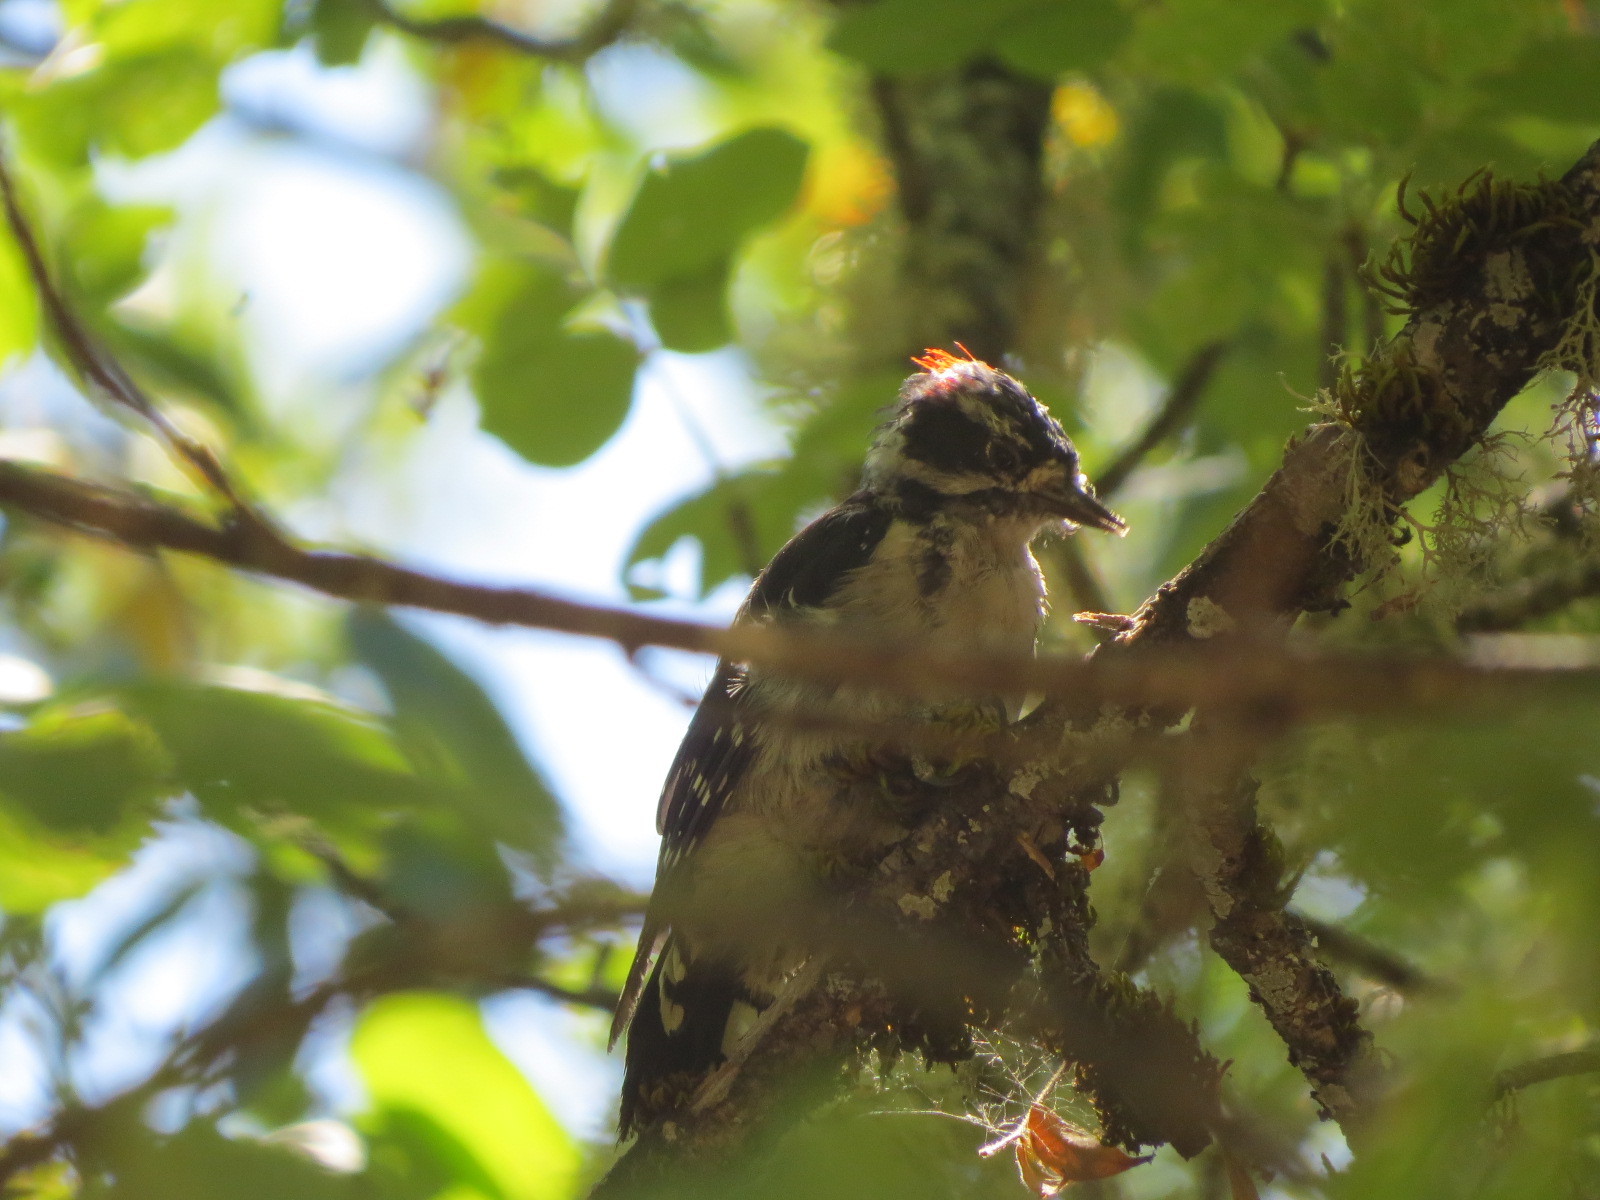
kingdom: Animalia
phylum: Chordata
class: Aves
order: Piciformes
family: Picidae
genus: Dryobates
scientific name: Dryobates pubescens
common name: Downy woodpecker
